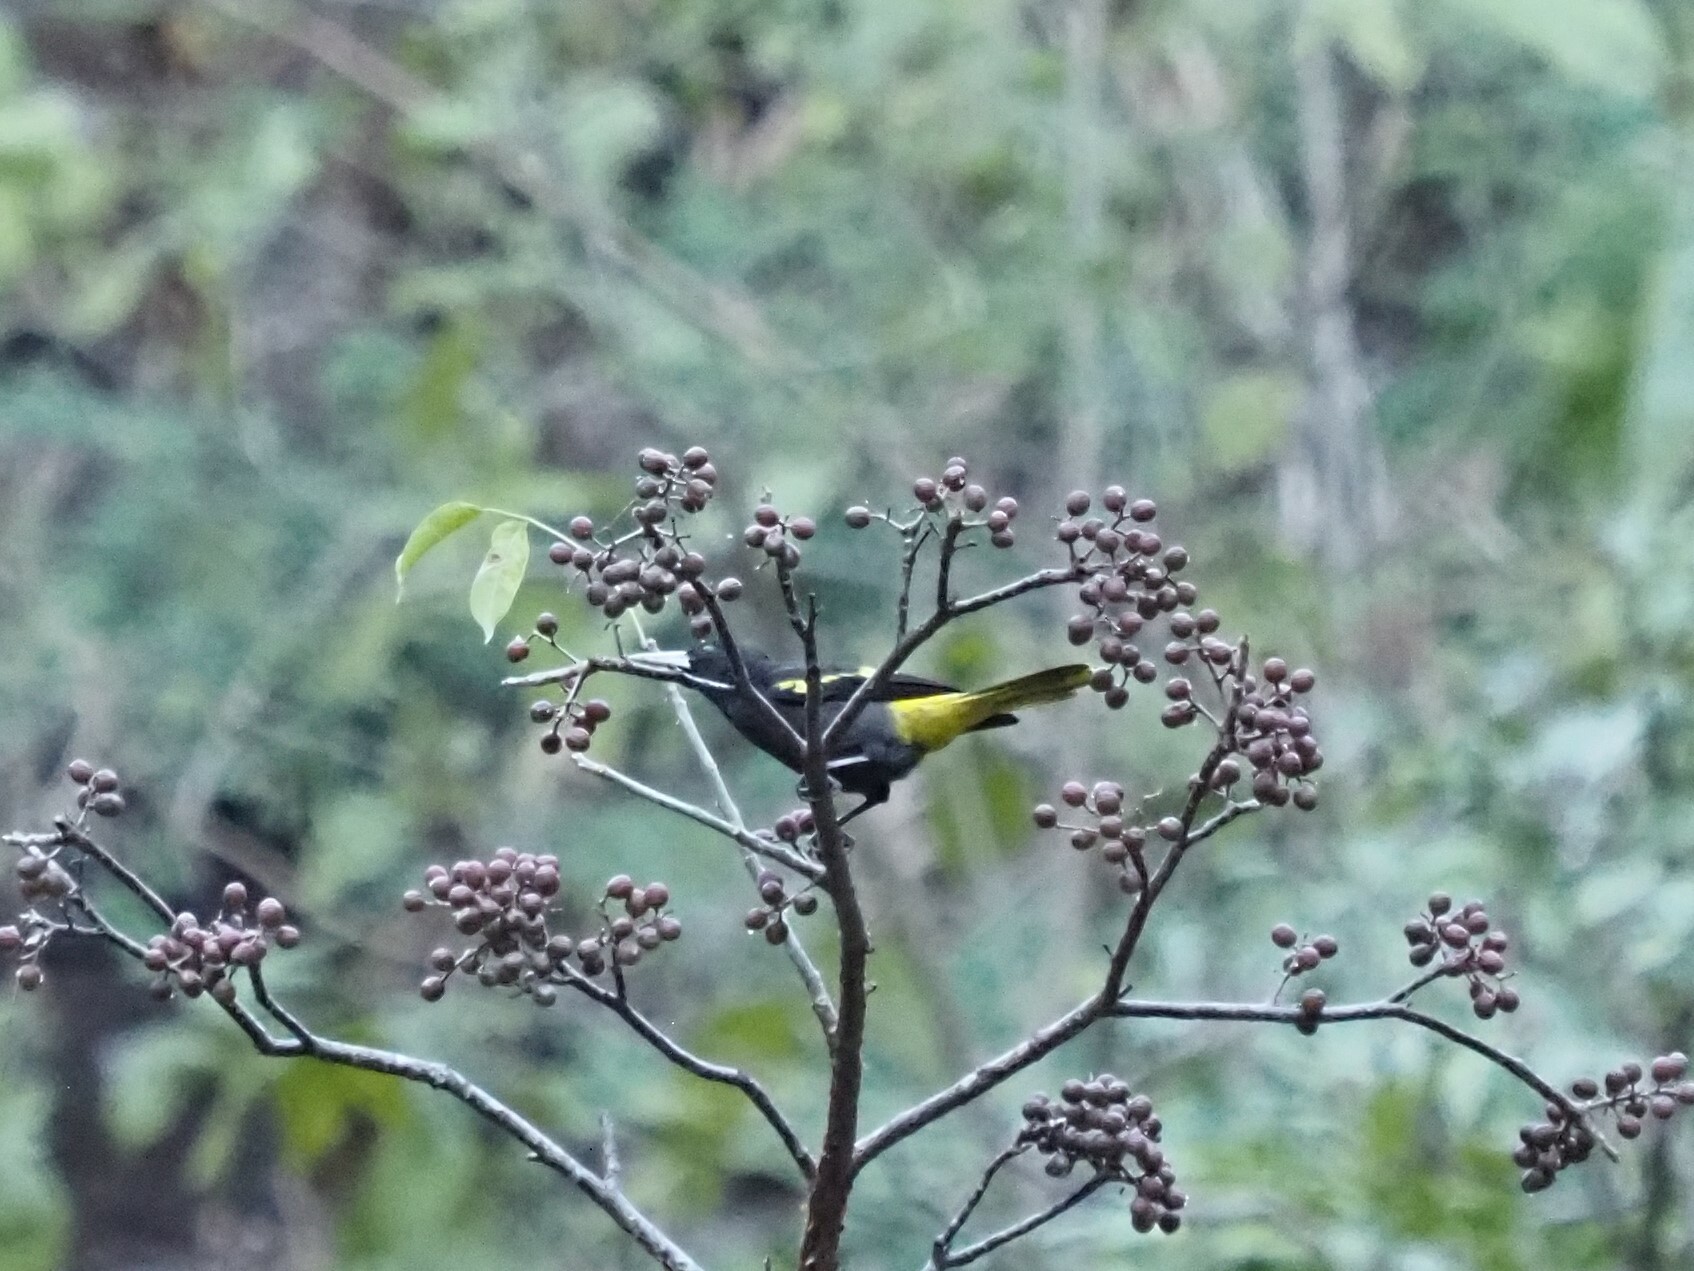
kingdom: Animalia
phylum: Chordata
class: Aves
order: Passeriformes
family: Icteridae
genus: Cacicus
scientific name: Cacicus melanicterus
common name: Yellow-winged cacique
